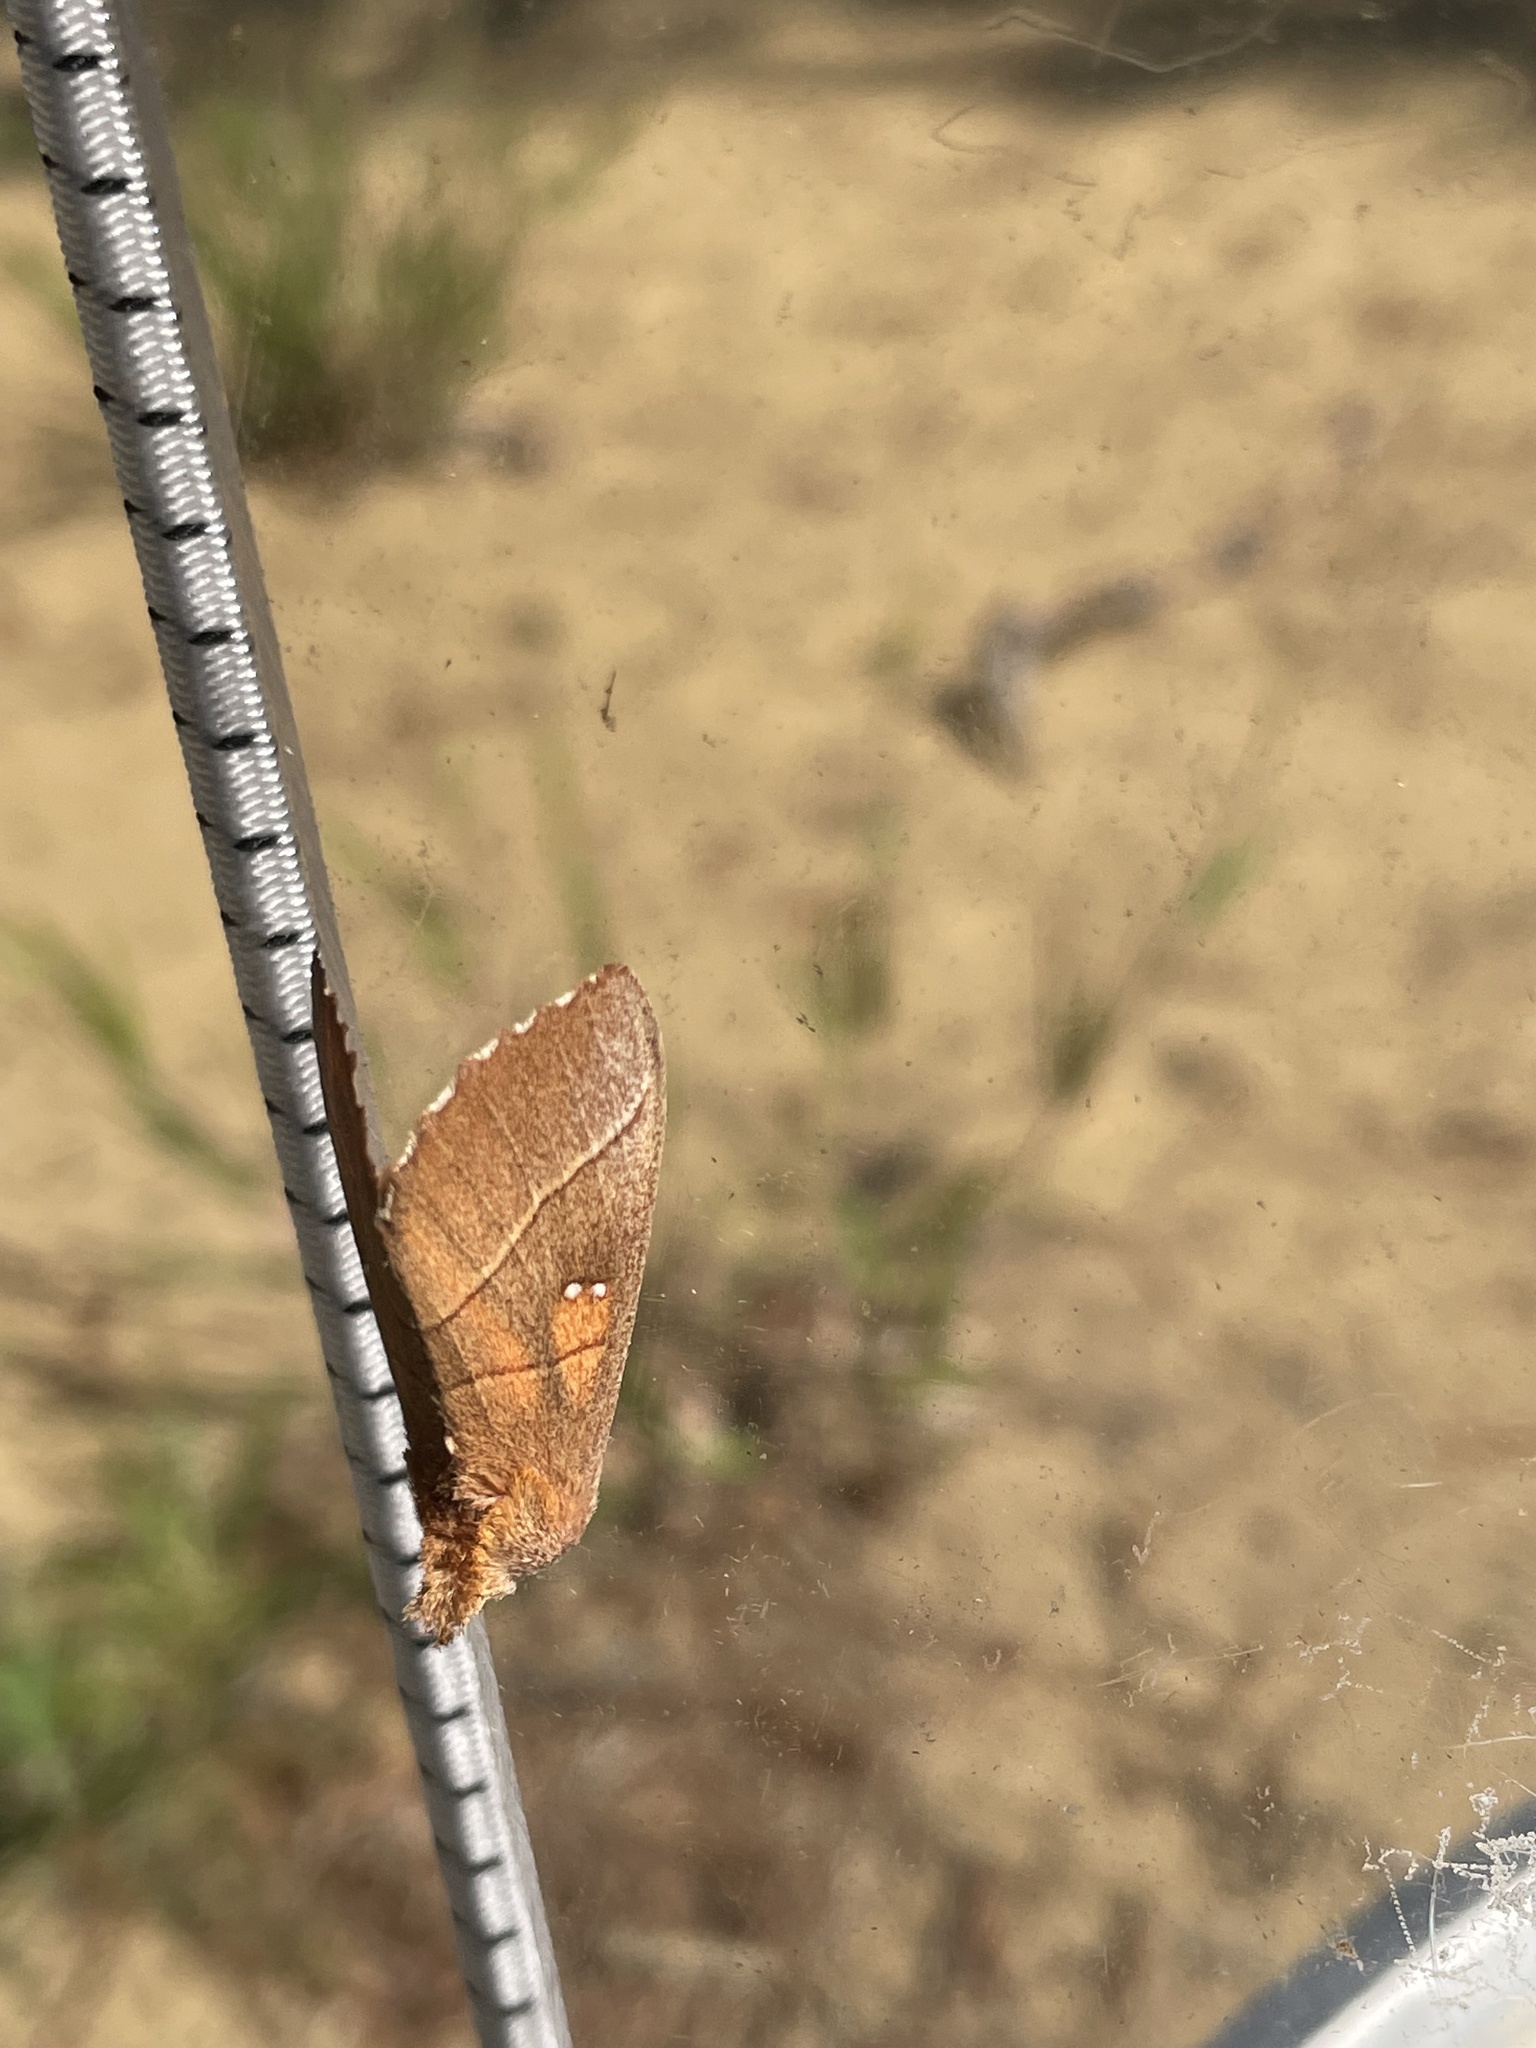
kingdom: Animalia
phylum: Arthropoda
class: Insecta
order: Lepidoptera
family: Notodontidae
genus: Nadata
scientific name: Nadata gibbosa
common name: White-dotted prominent
